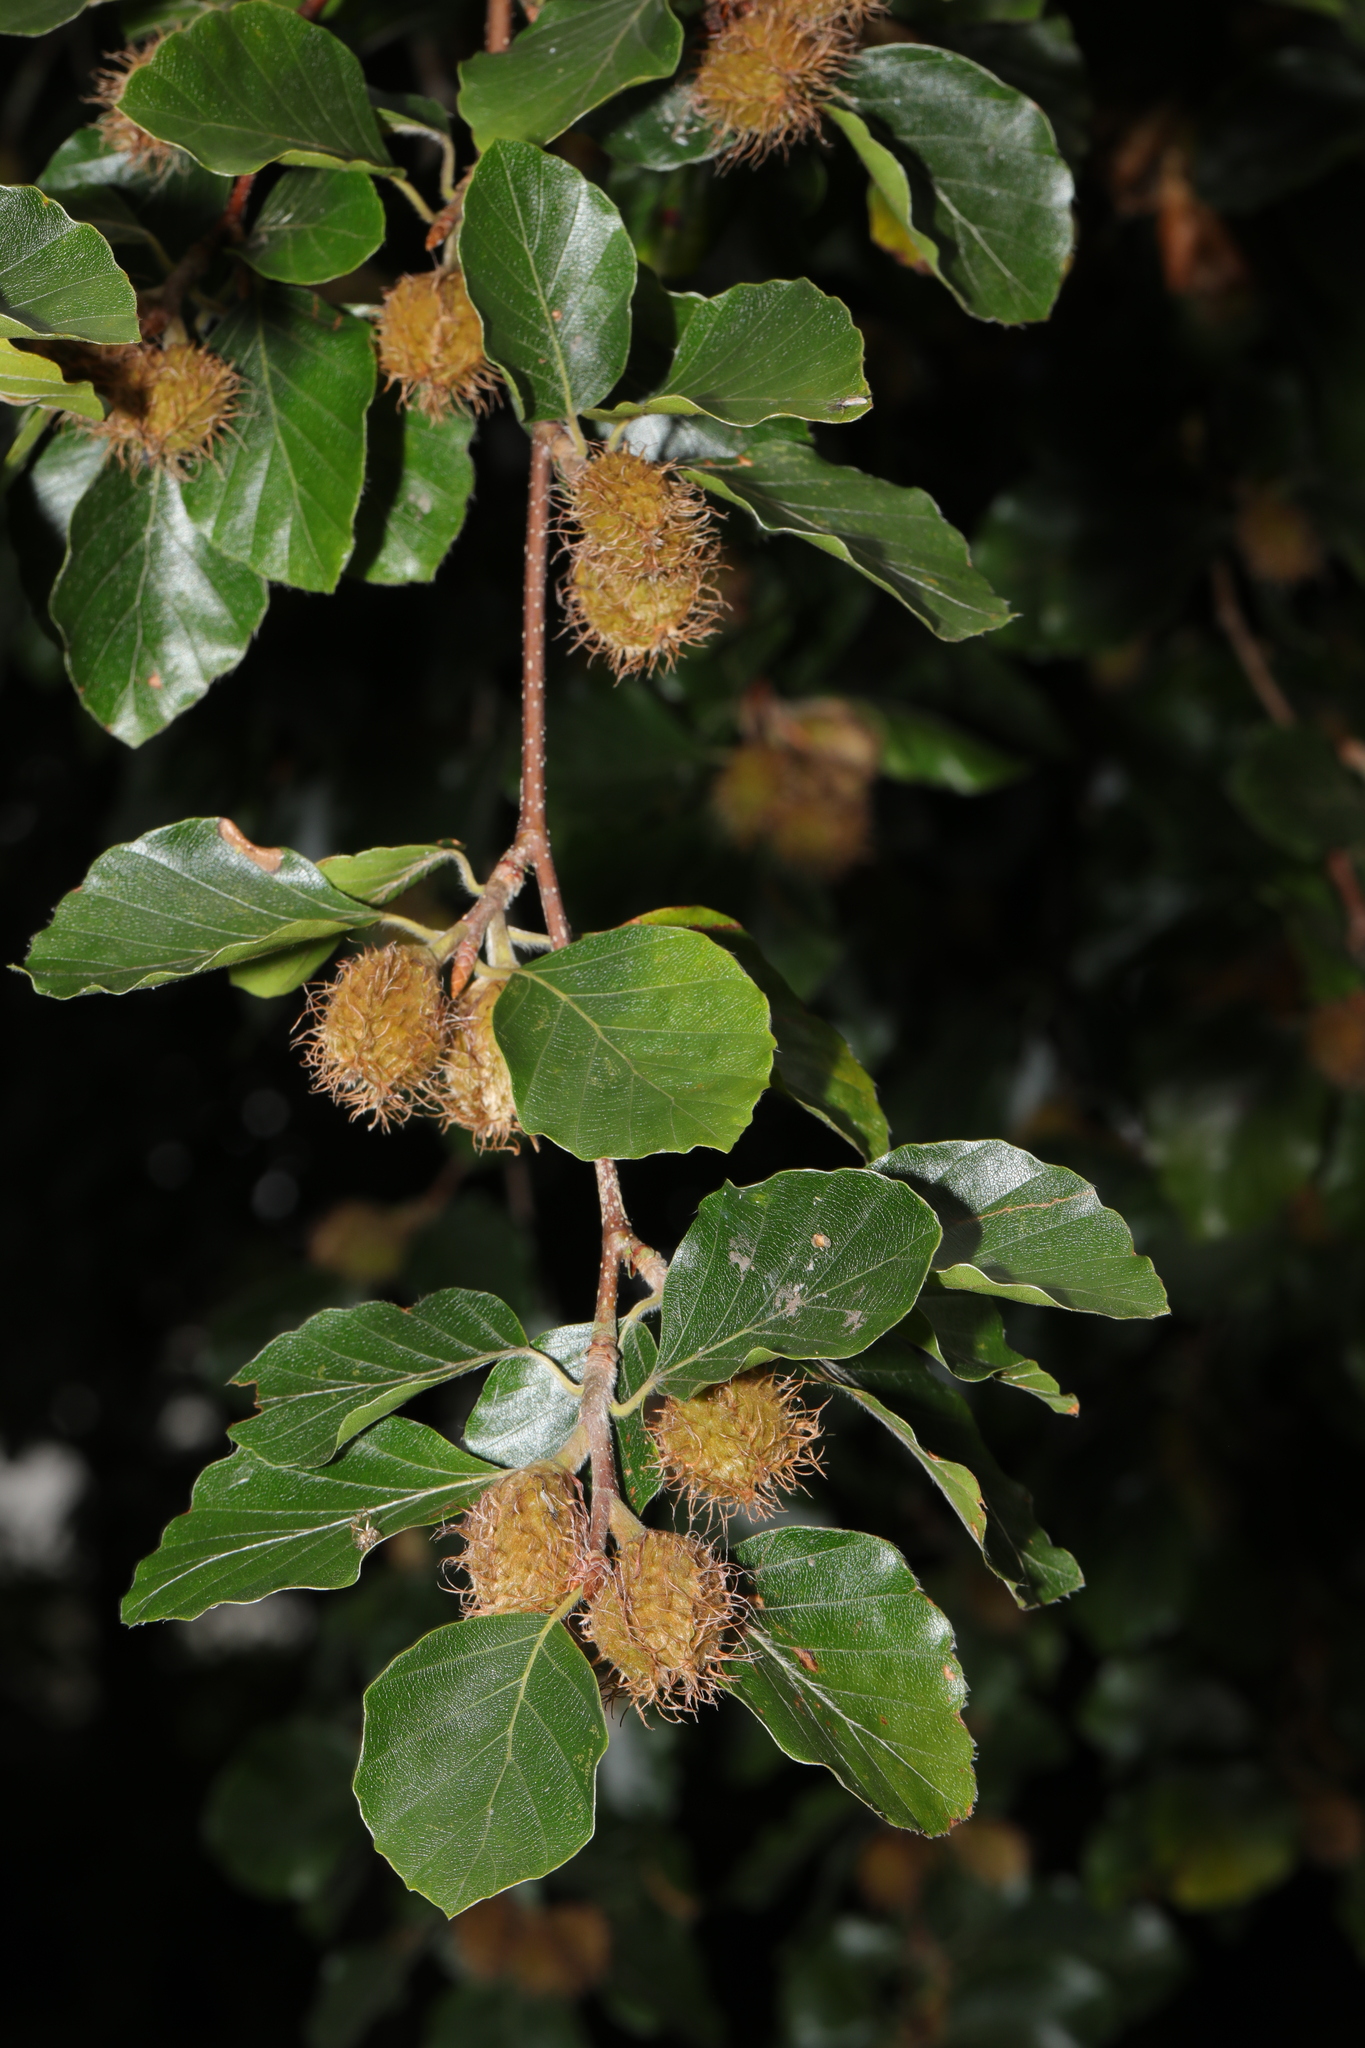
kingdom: Plantae
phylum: Tracheophyta
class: Magnoliopsida
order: Fagales
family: Fagaceae
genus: Fagus
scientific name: Fagus sylvatica
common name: Beech
